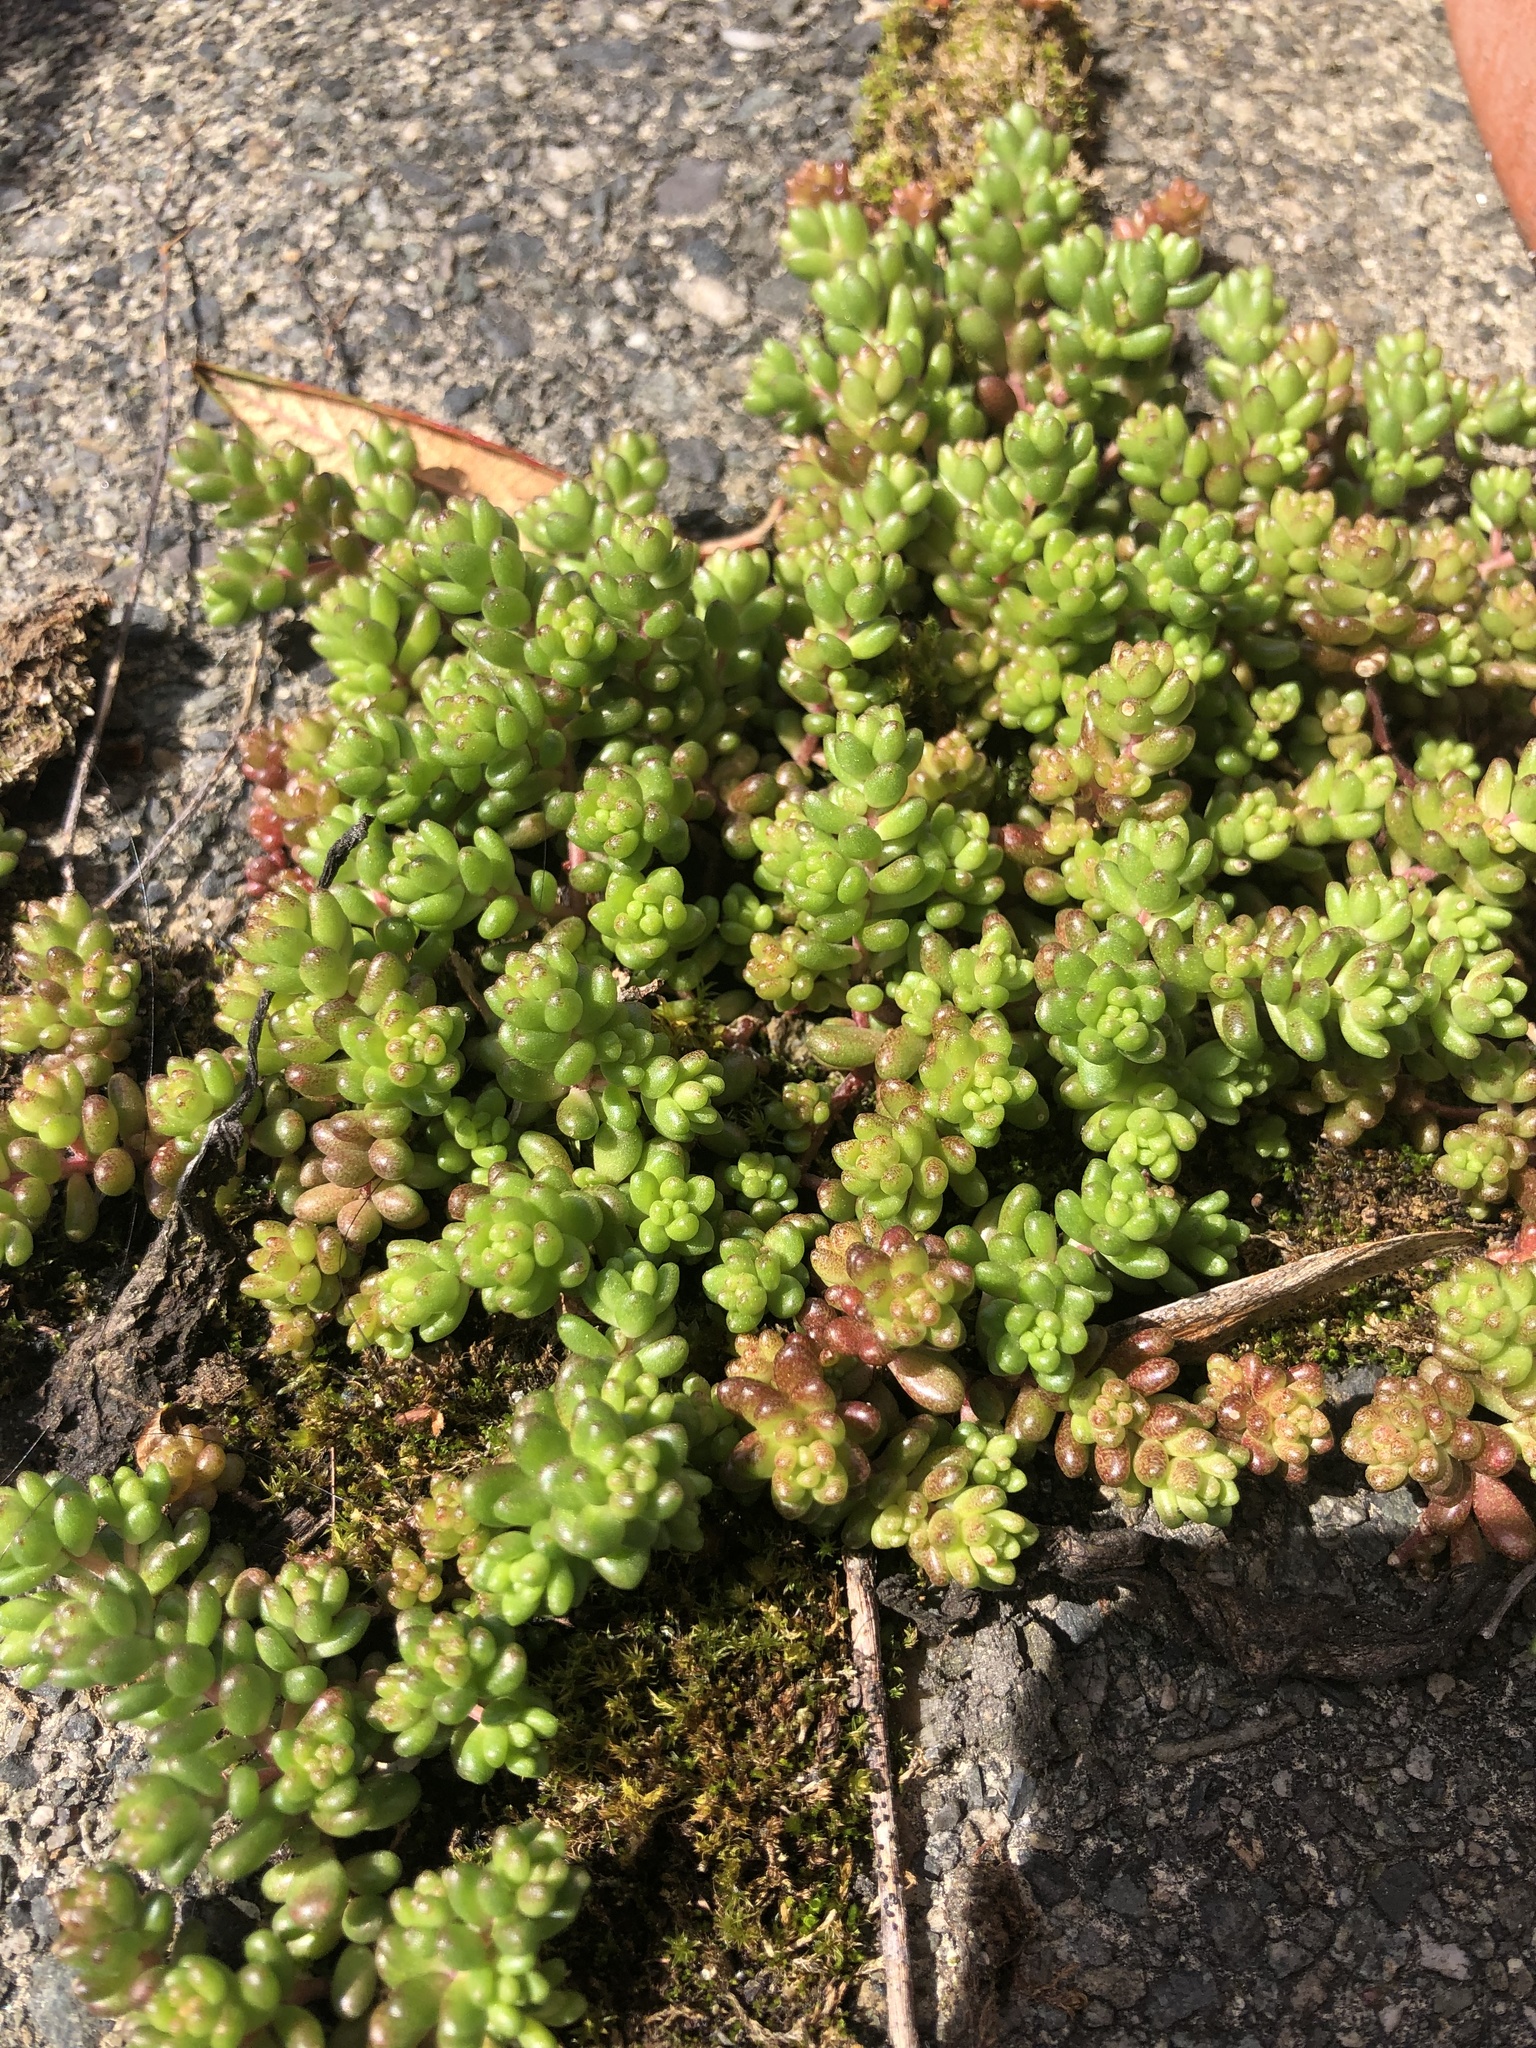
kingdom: Plantae
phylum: Tracheophyta
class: Magnoliopsida
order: Saxifragales
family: Crassulaceae
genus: Sedum
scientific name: Sedum album
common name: White stonecrop
